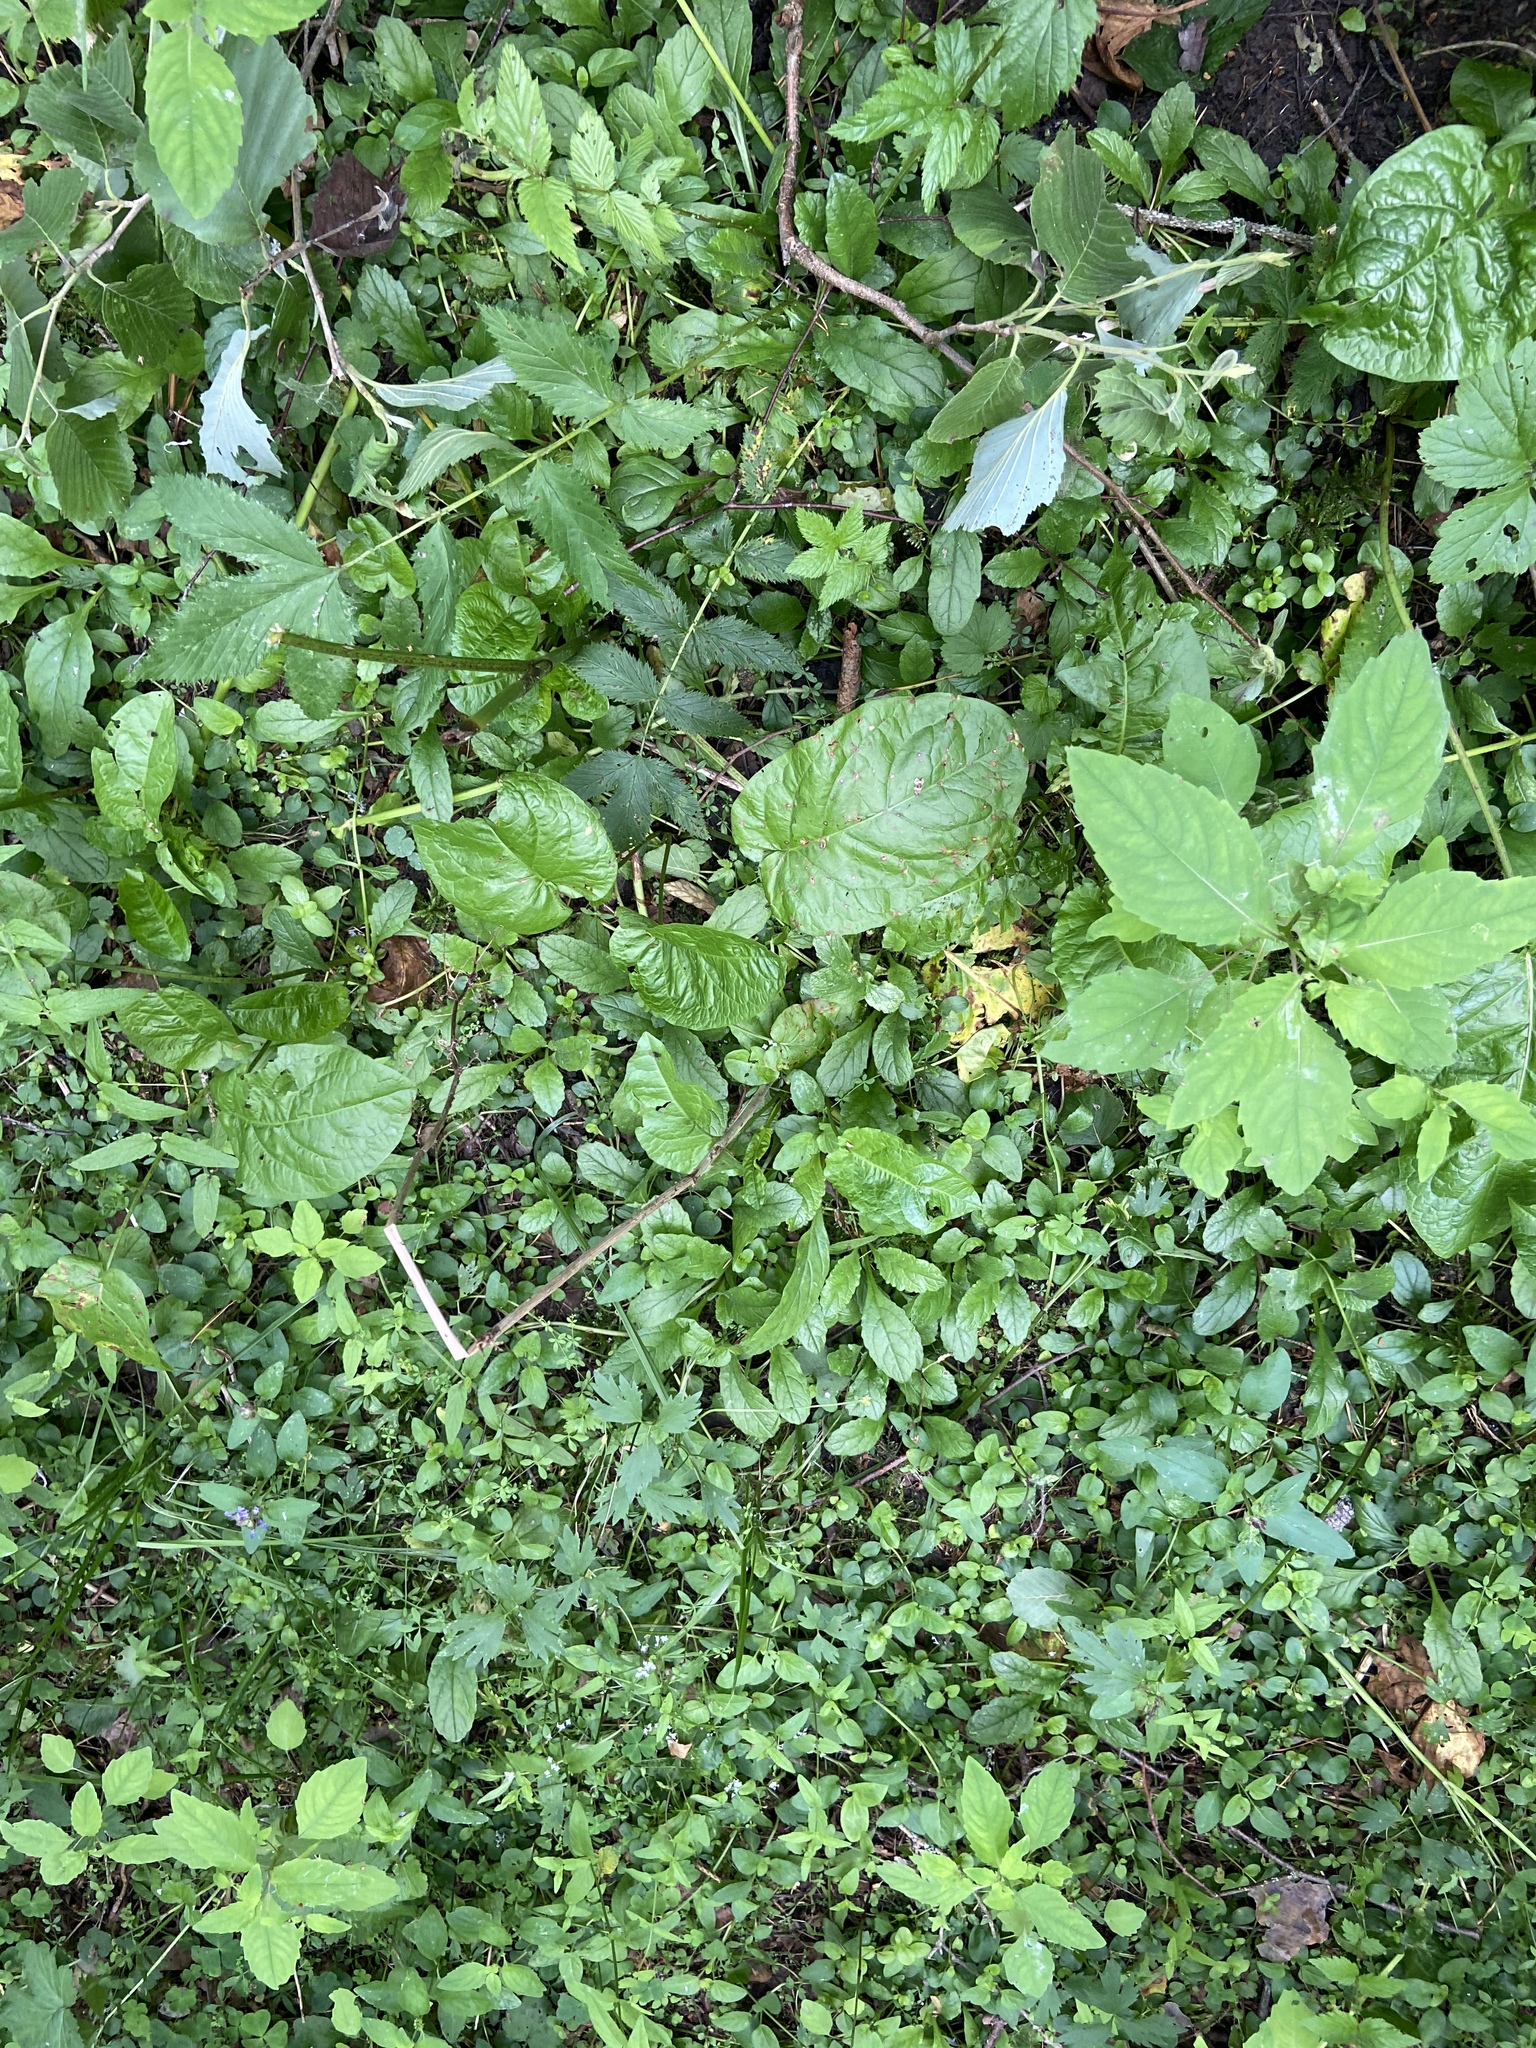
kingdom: Plantae
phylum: Tracheophyta
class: Magnoliopsida
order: Lamiales
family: Lamiaceae
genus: Ajuga
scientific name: Ajuga reptans
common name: Bugle
